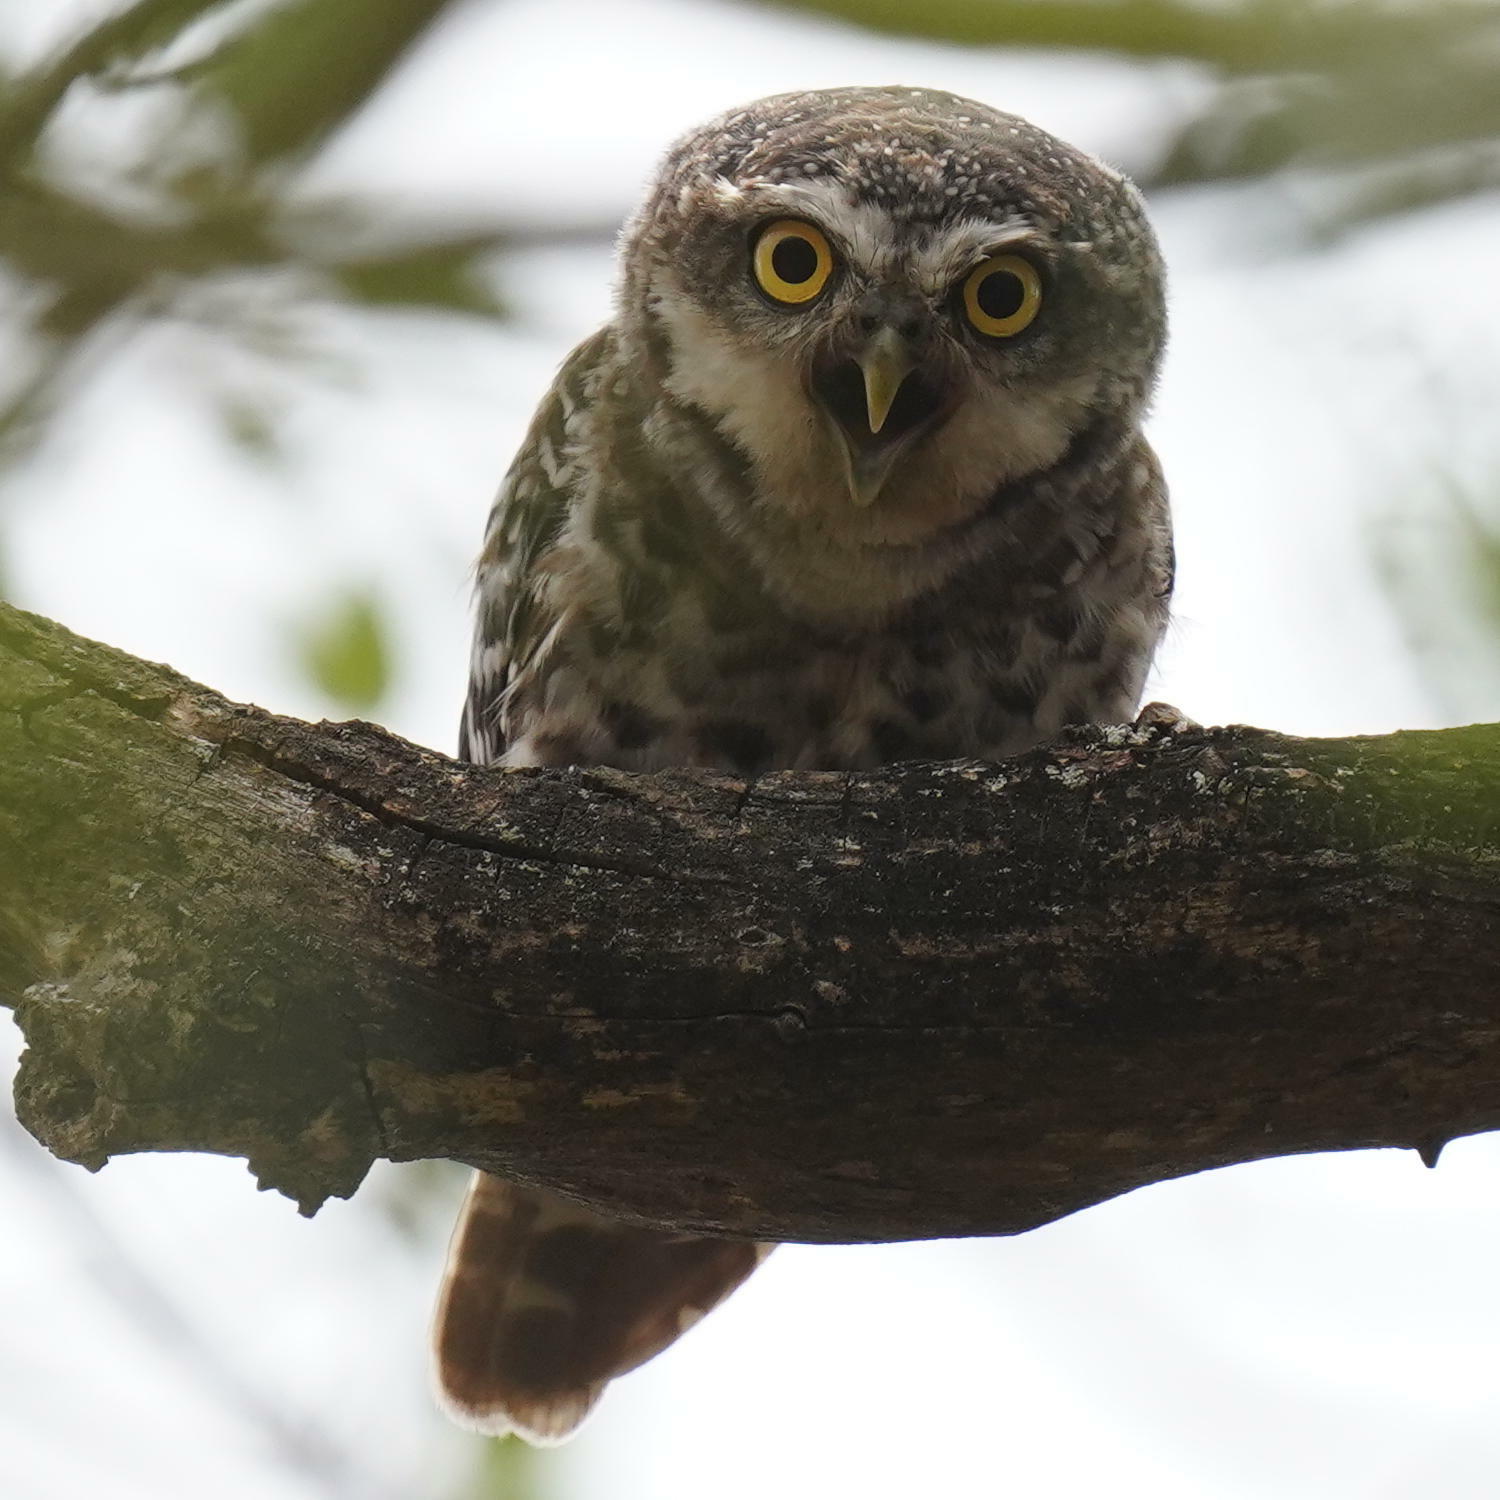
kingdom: Animalia
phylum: Chordata
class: Aves
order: Strigiformes
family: Strigidae
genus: Athene
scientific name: Athene brama
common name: Spotted owlet
